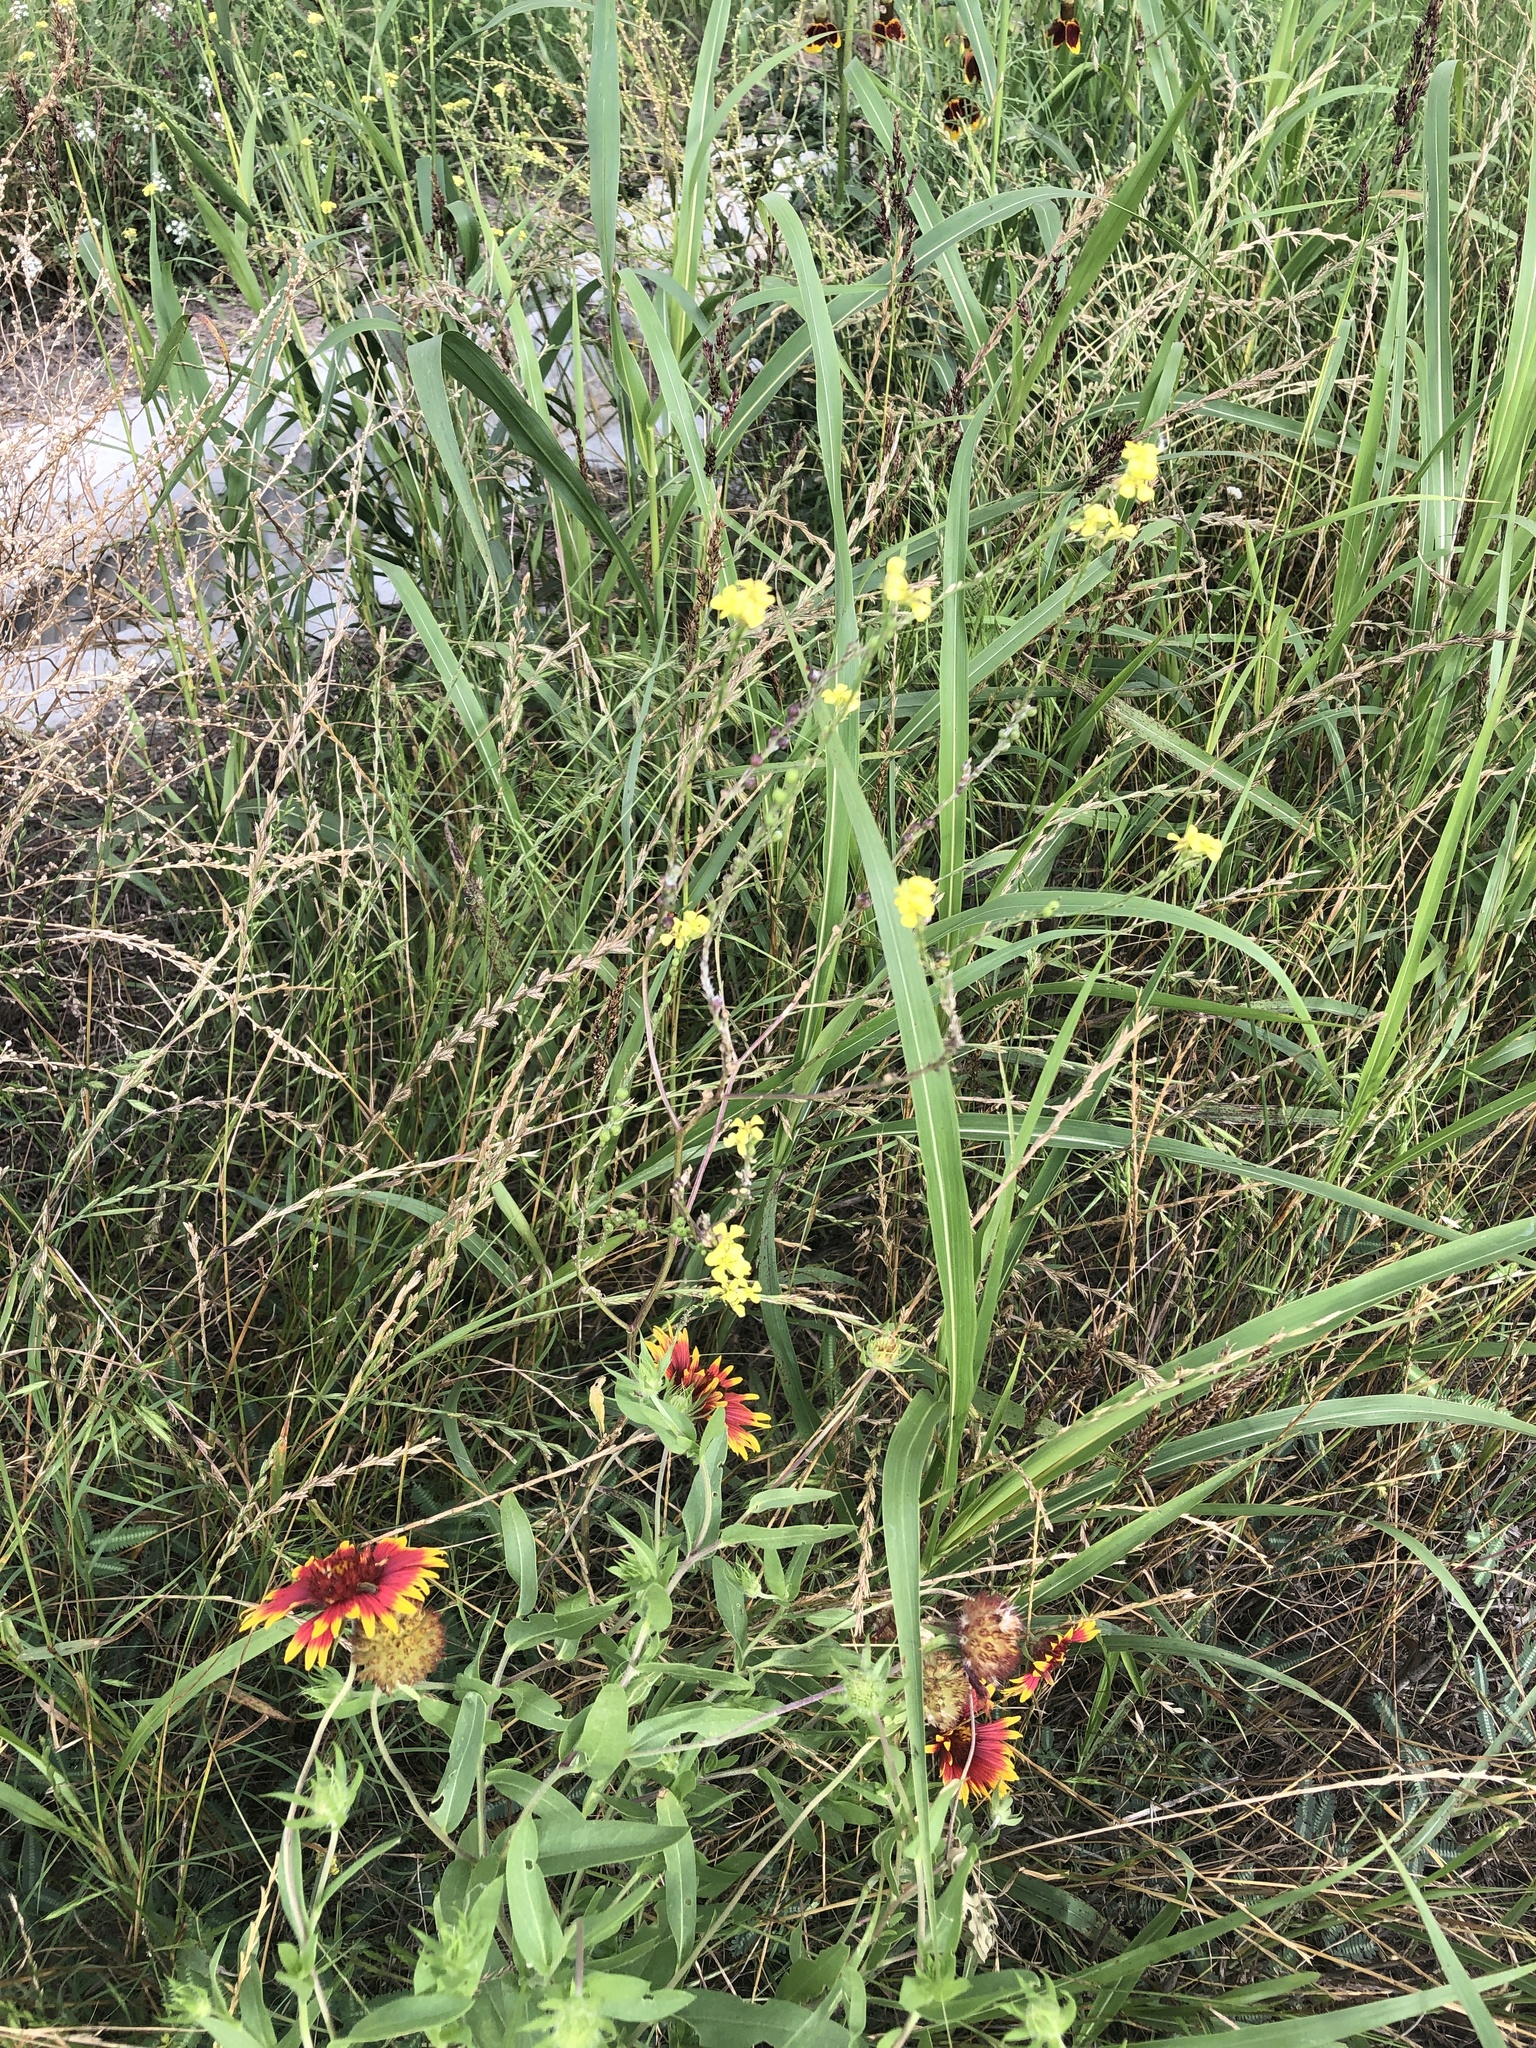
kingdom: Plantae
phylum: Tracheophyta
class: Magnoliopsida
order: Brassicales
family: Brassicaceae
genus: Rapistrum
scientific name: Rapistrum rugosum
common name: Annual bastardcabbage
